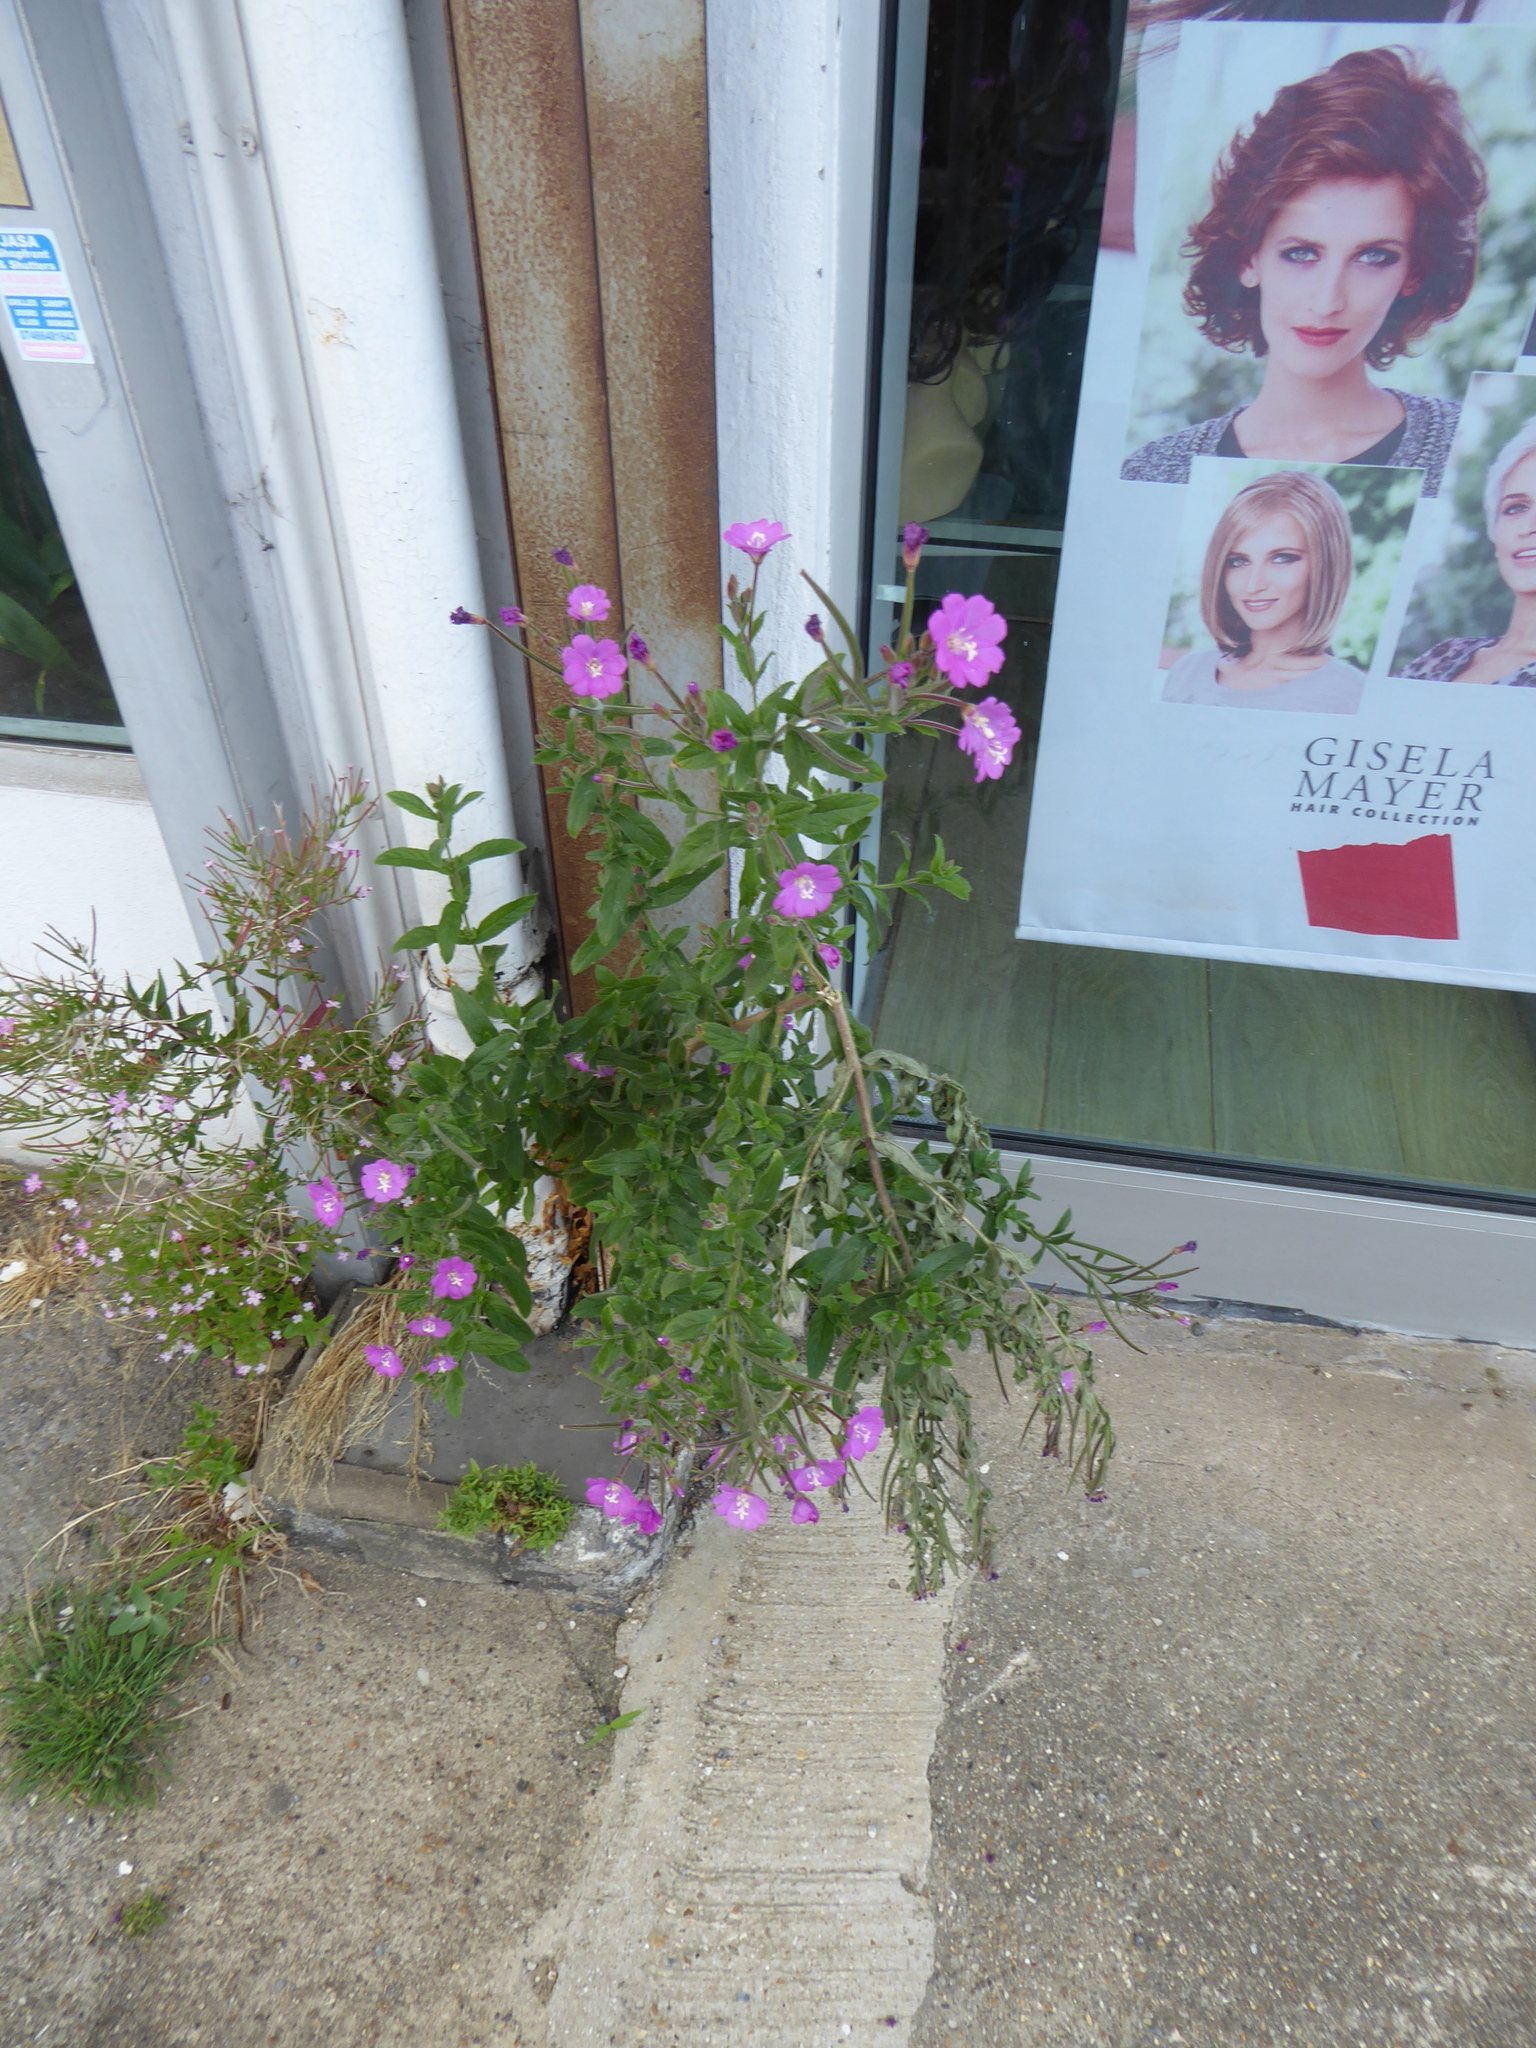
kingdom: Plantae
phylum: Tracheophyta
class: Magnoliopsida
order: Myrtales
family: Onagraceae
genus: Epilobium
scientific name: Epilobium hirsutum
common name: Great willowherb
